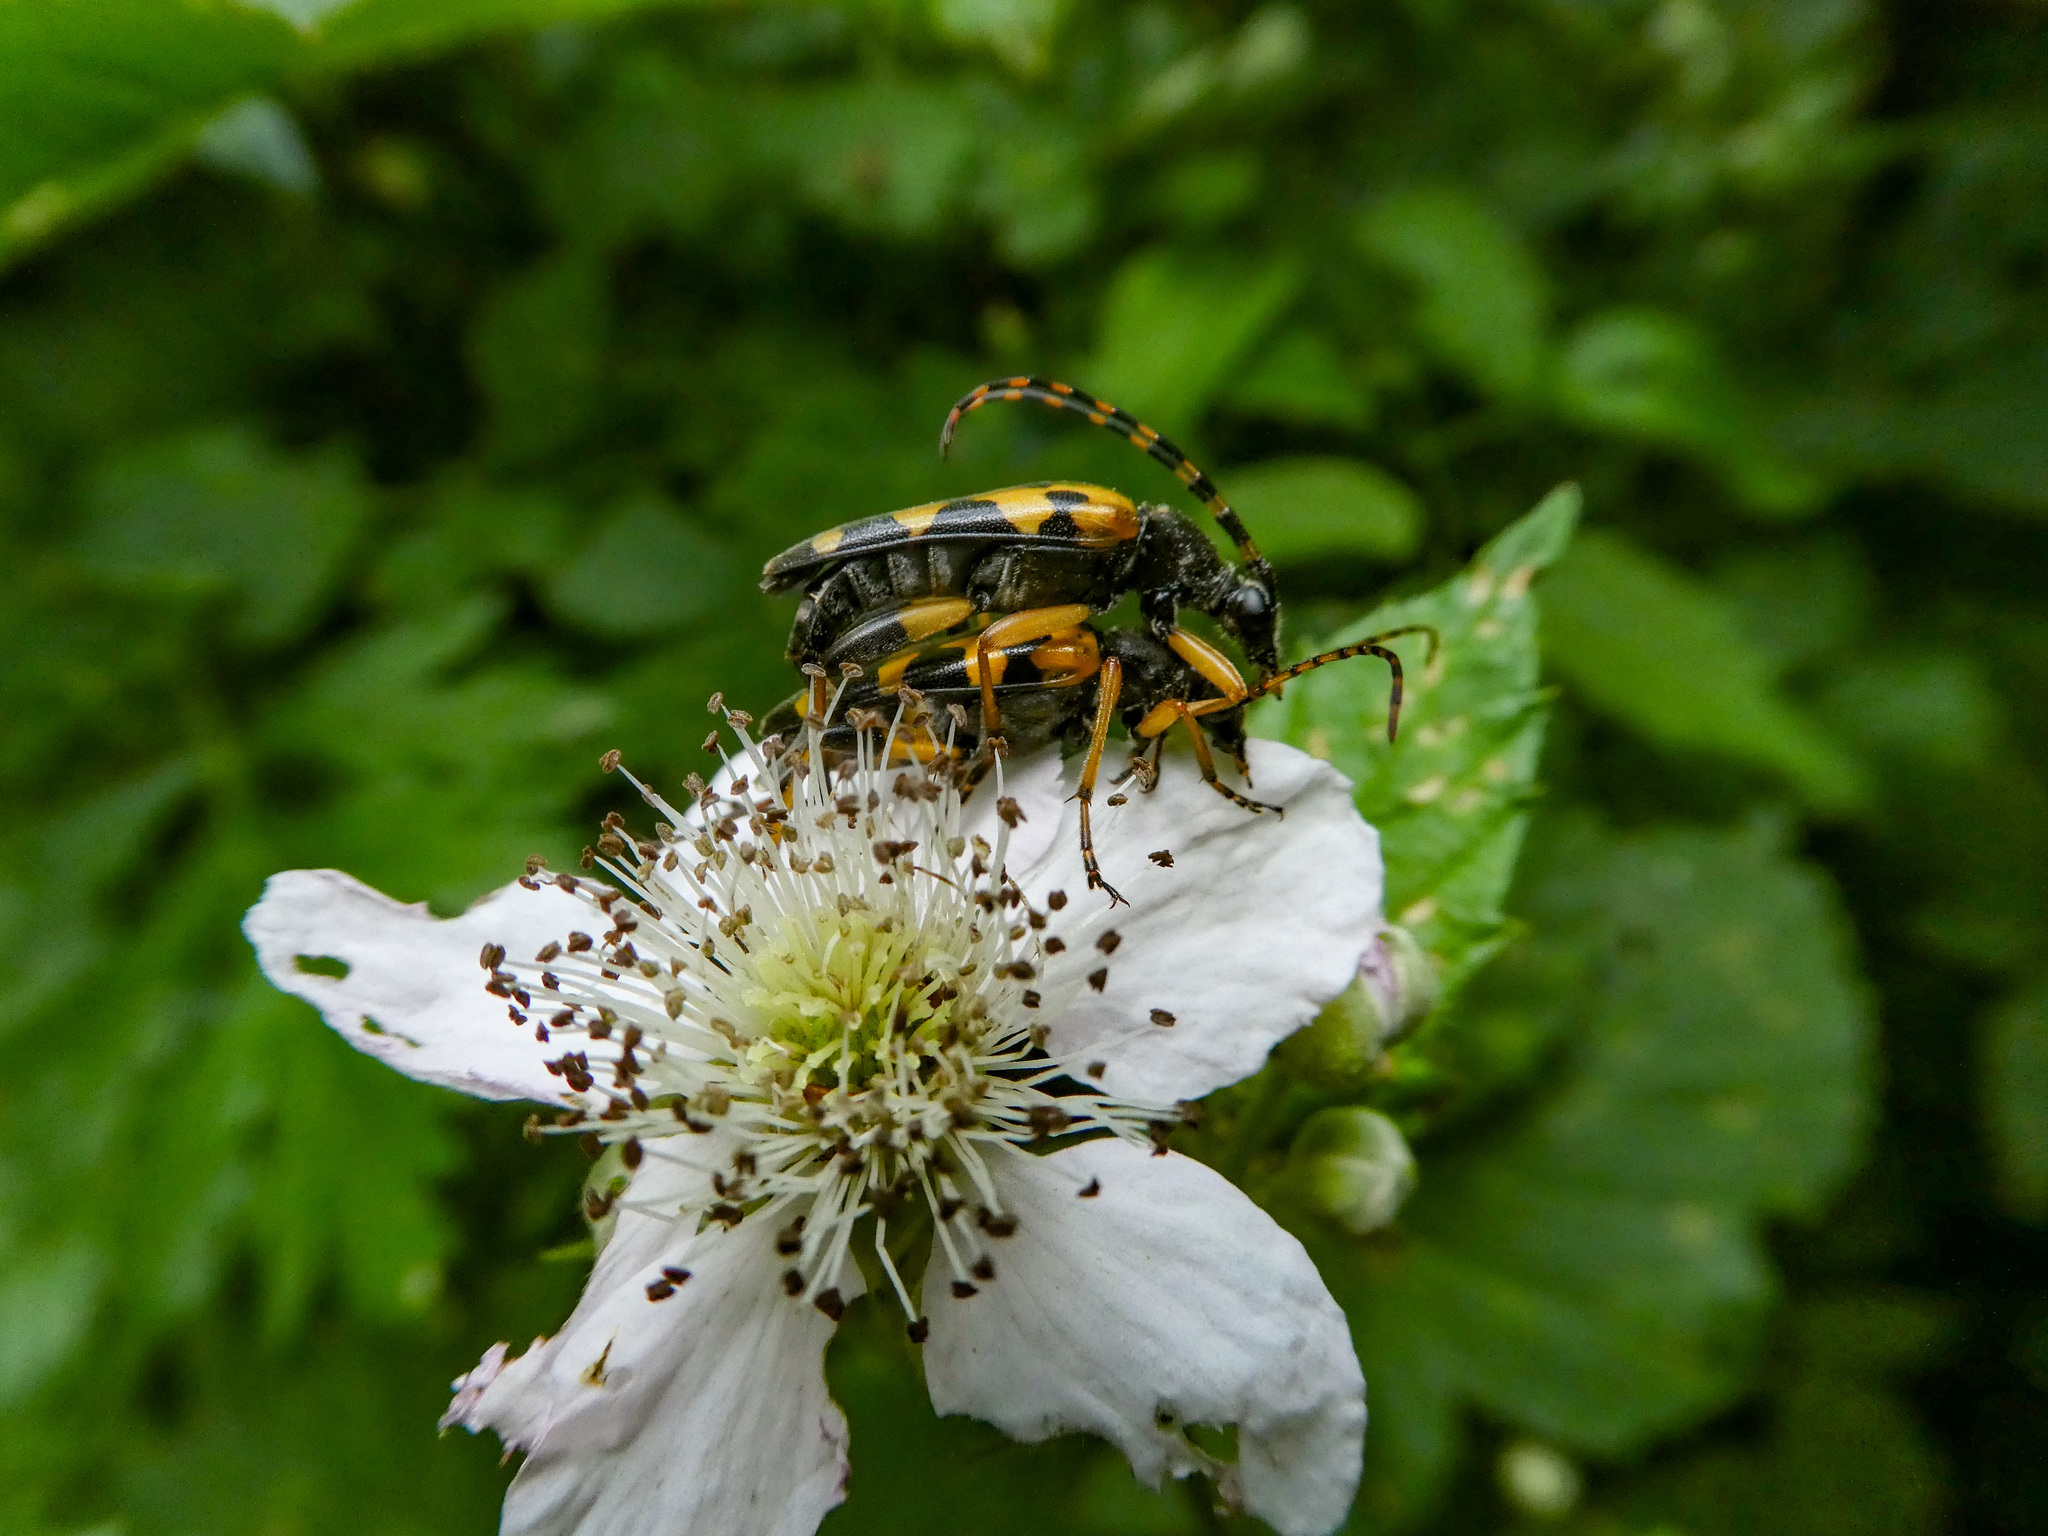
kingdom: Animalia
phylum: Arthropoda
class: Insecta
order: Coleoptera
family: Cerambycidae
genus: Rutpela
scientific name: Rutpela maculata
